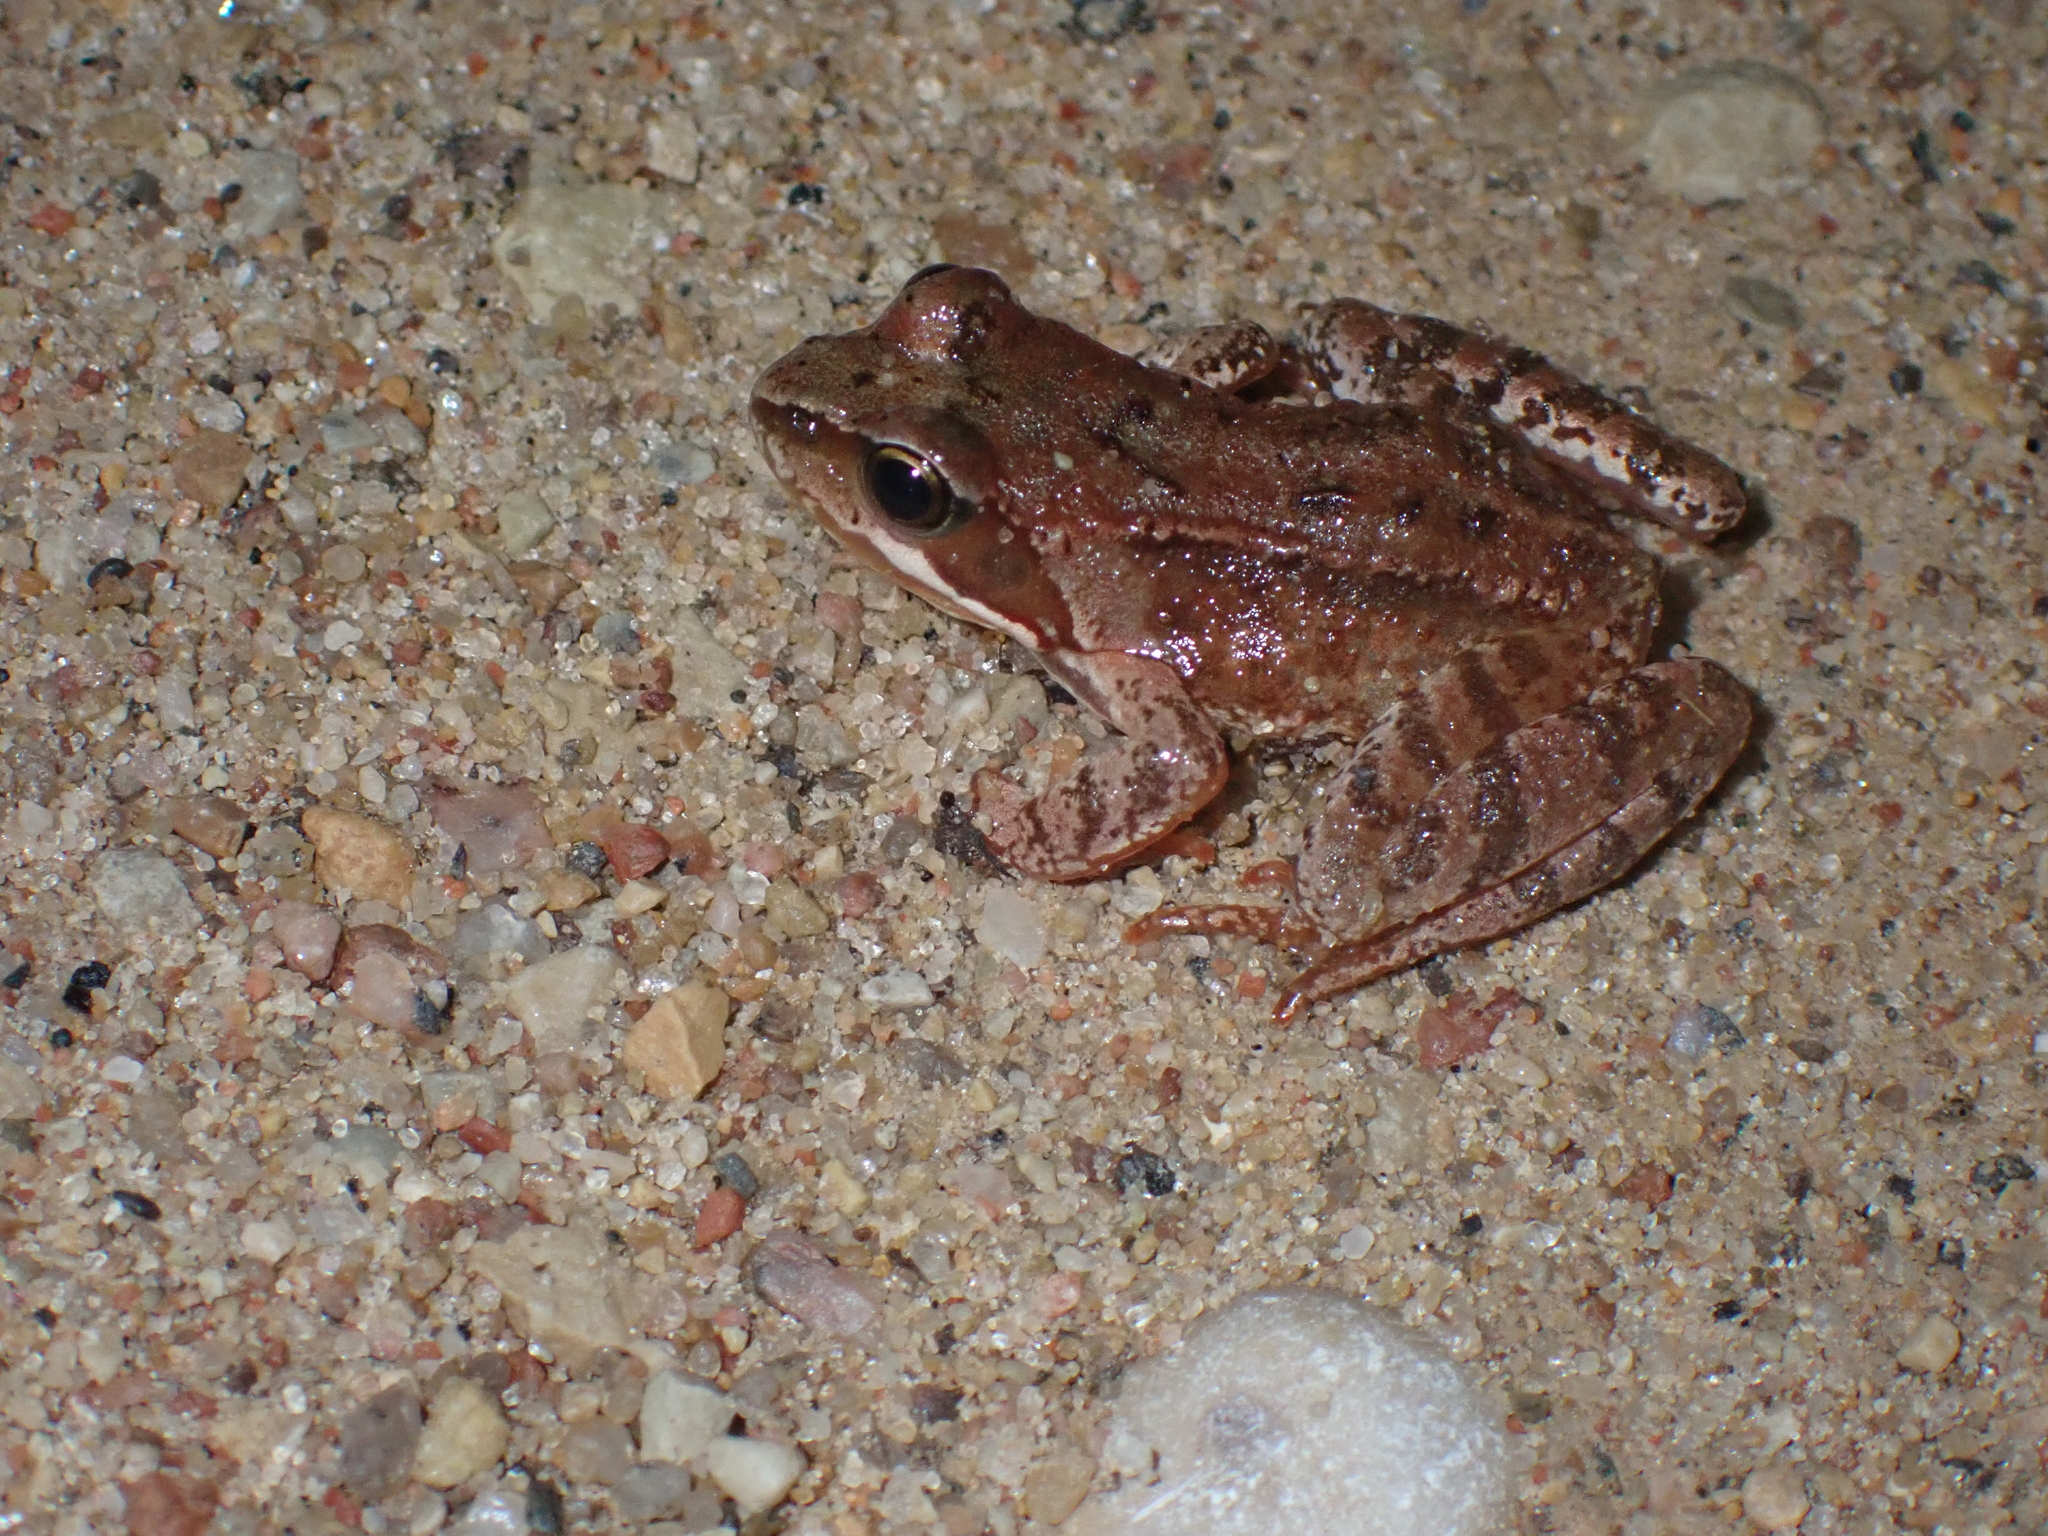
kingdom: Animalia
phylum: Chordata
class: Amphibia
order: Anura
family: Ranidae
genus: Rana
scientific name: Rana temporaria
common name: Common frog
